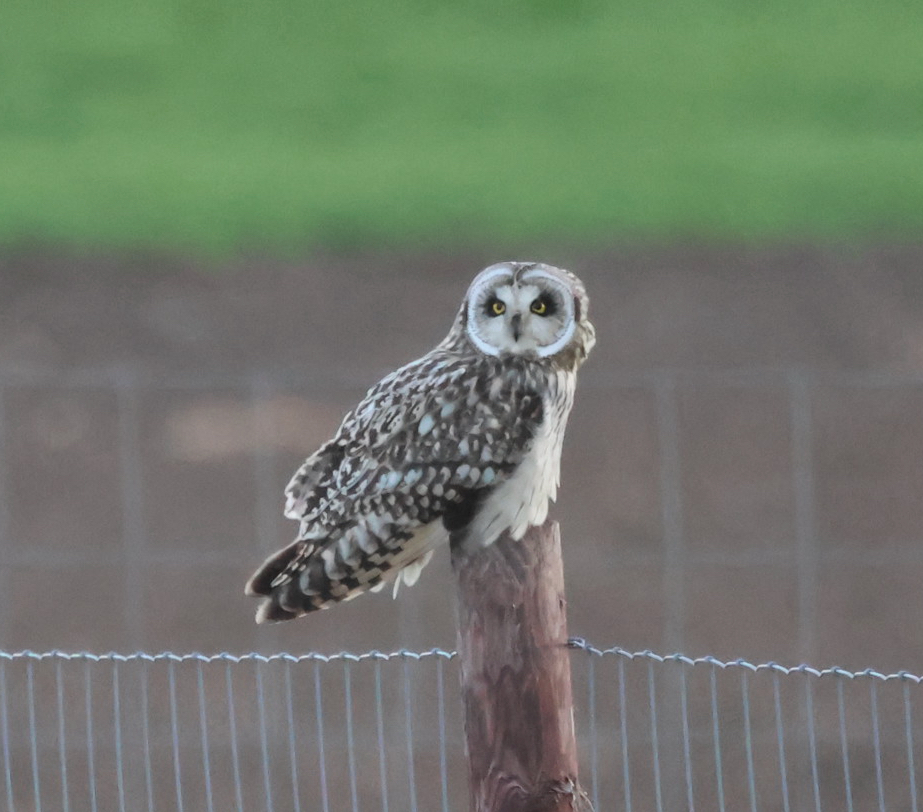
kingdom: Animalia
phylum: Chordata
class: Aves
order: Strigiformes
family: Strigidae
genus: Asio
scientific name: Asio flammeus
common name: Short-eared owl
